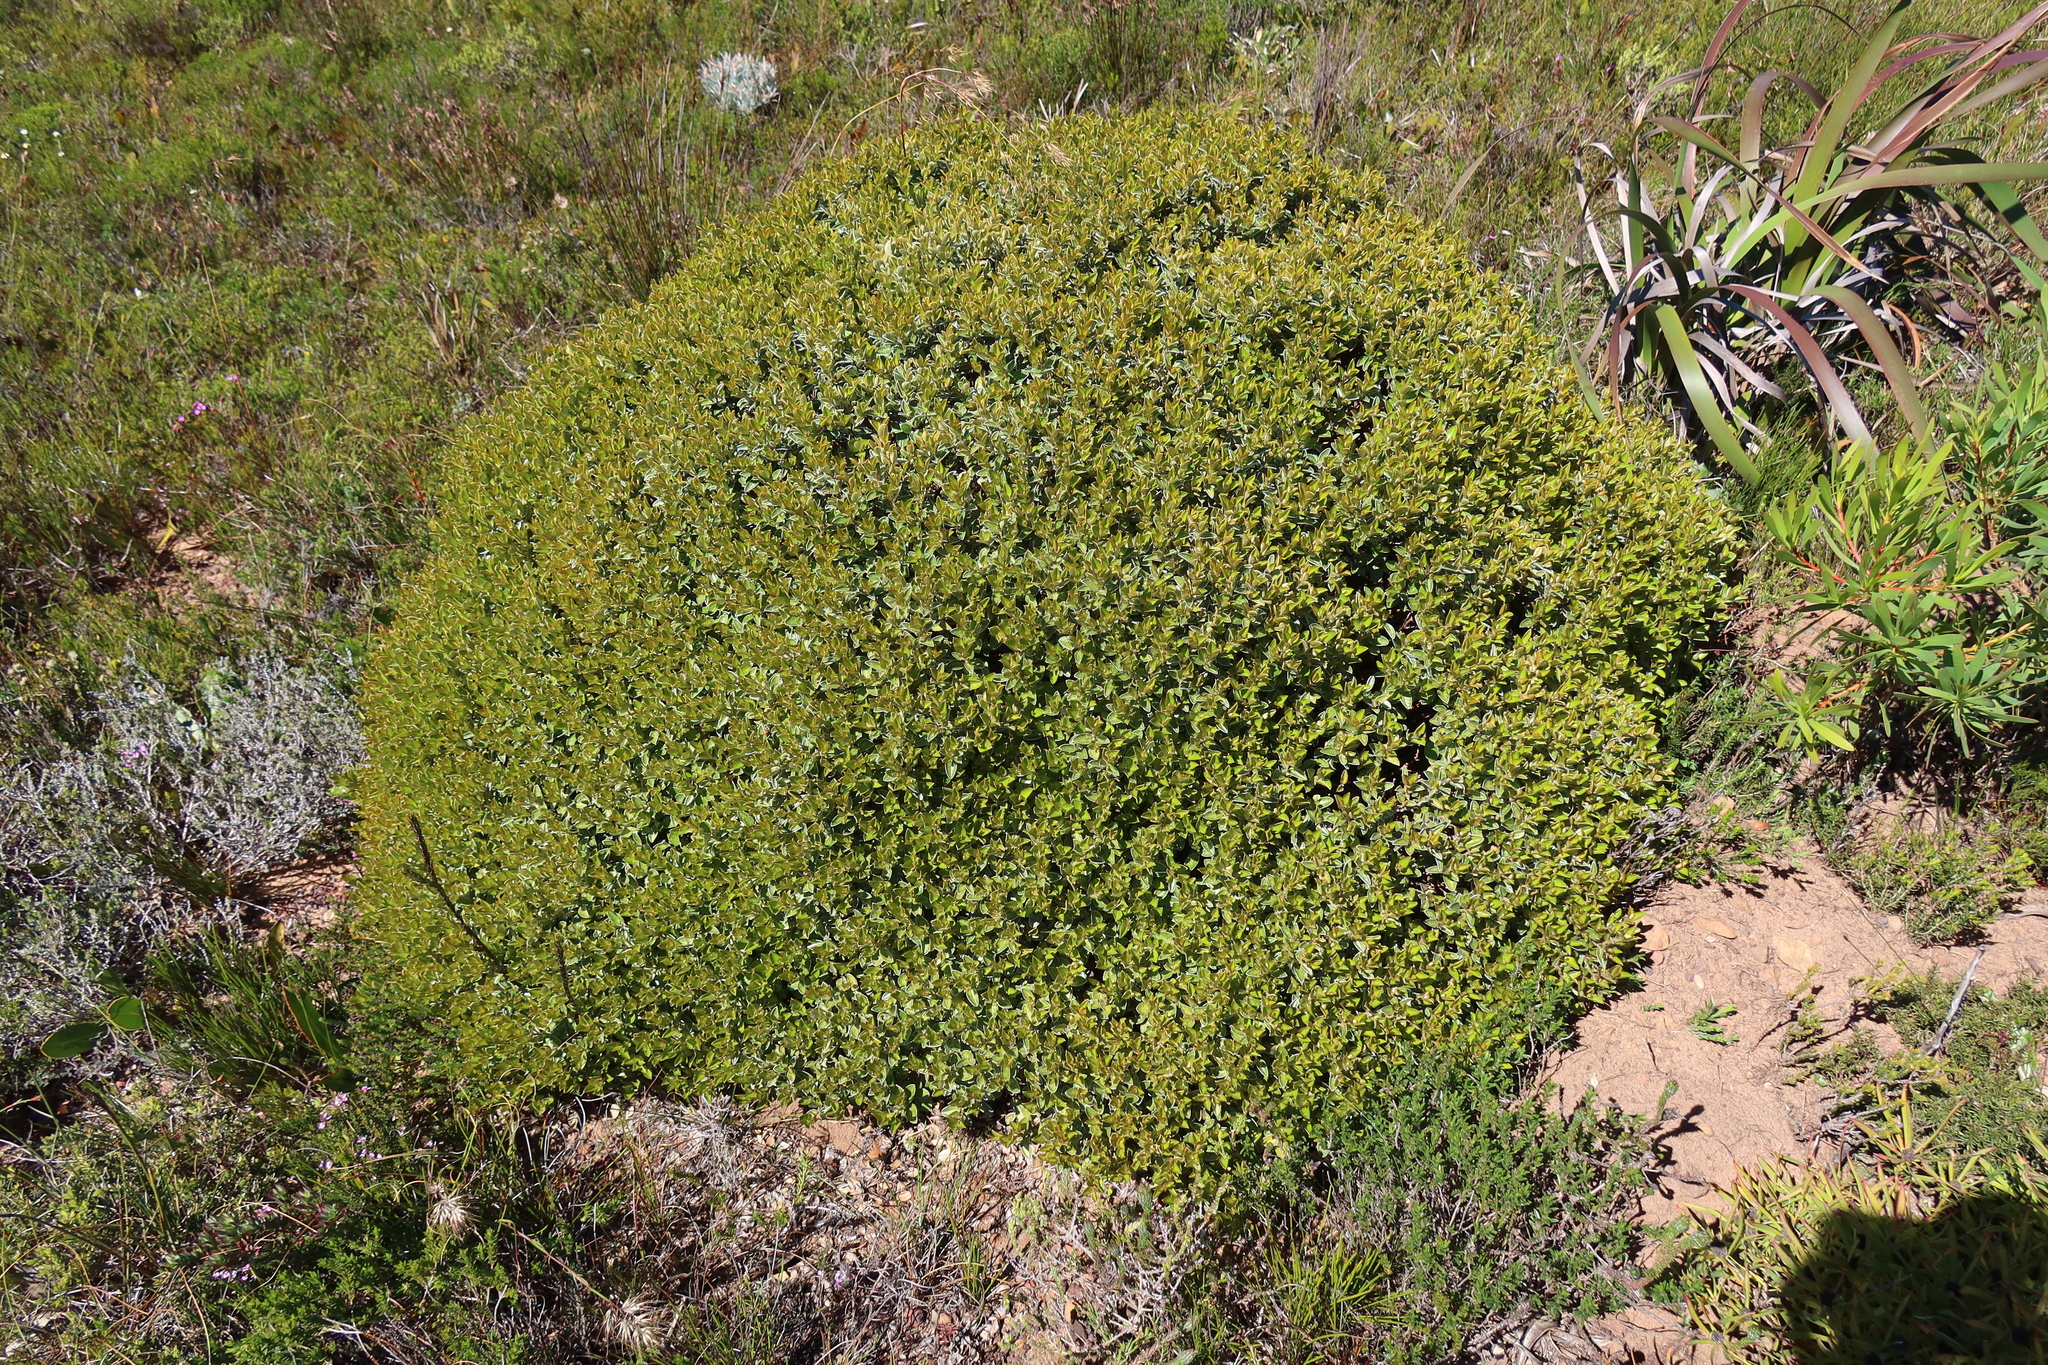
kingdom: Plantae
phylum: Tracheophyta
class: Magnoliopsida
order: Fabales
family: Fabaceae
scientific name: Fabaceae
